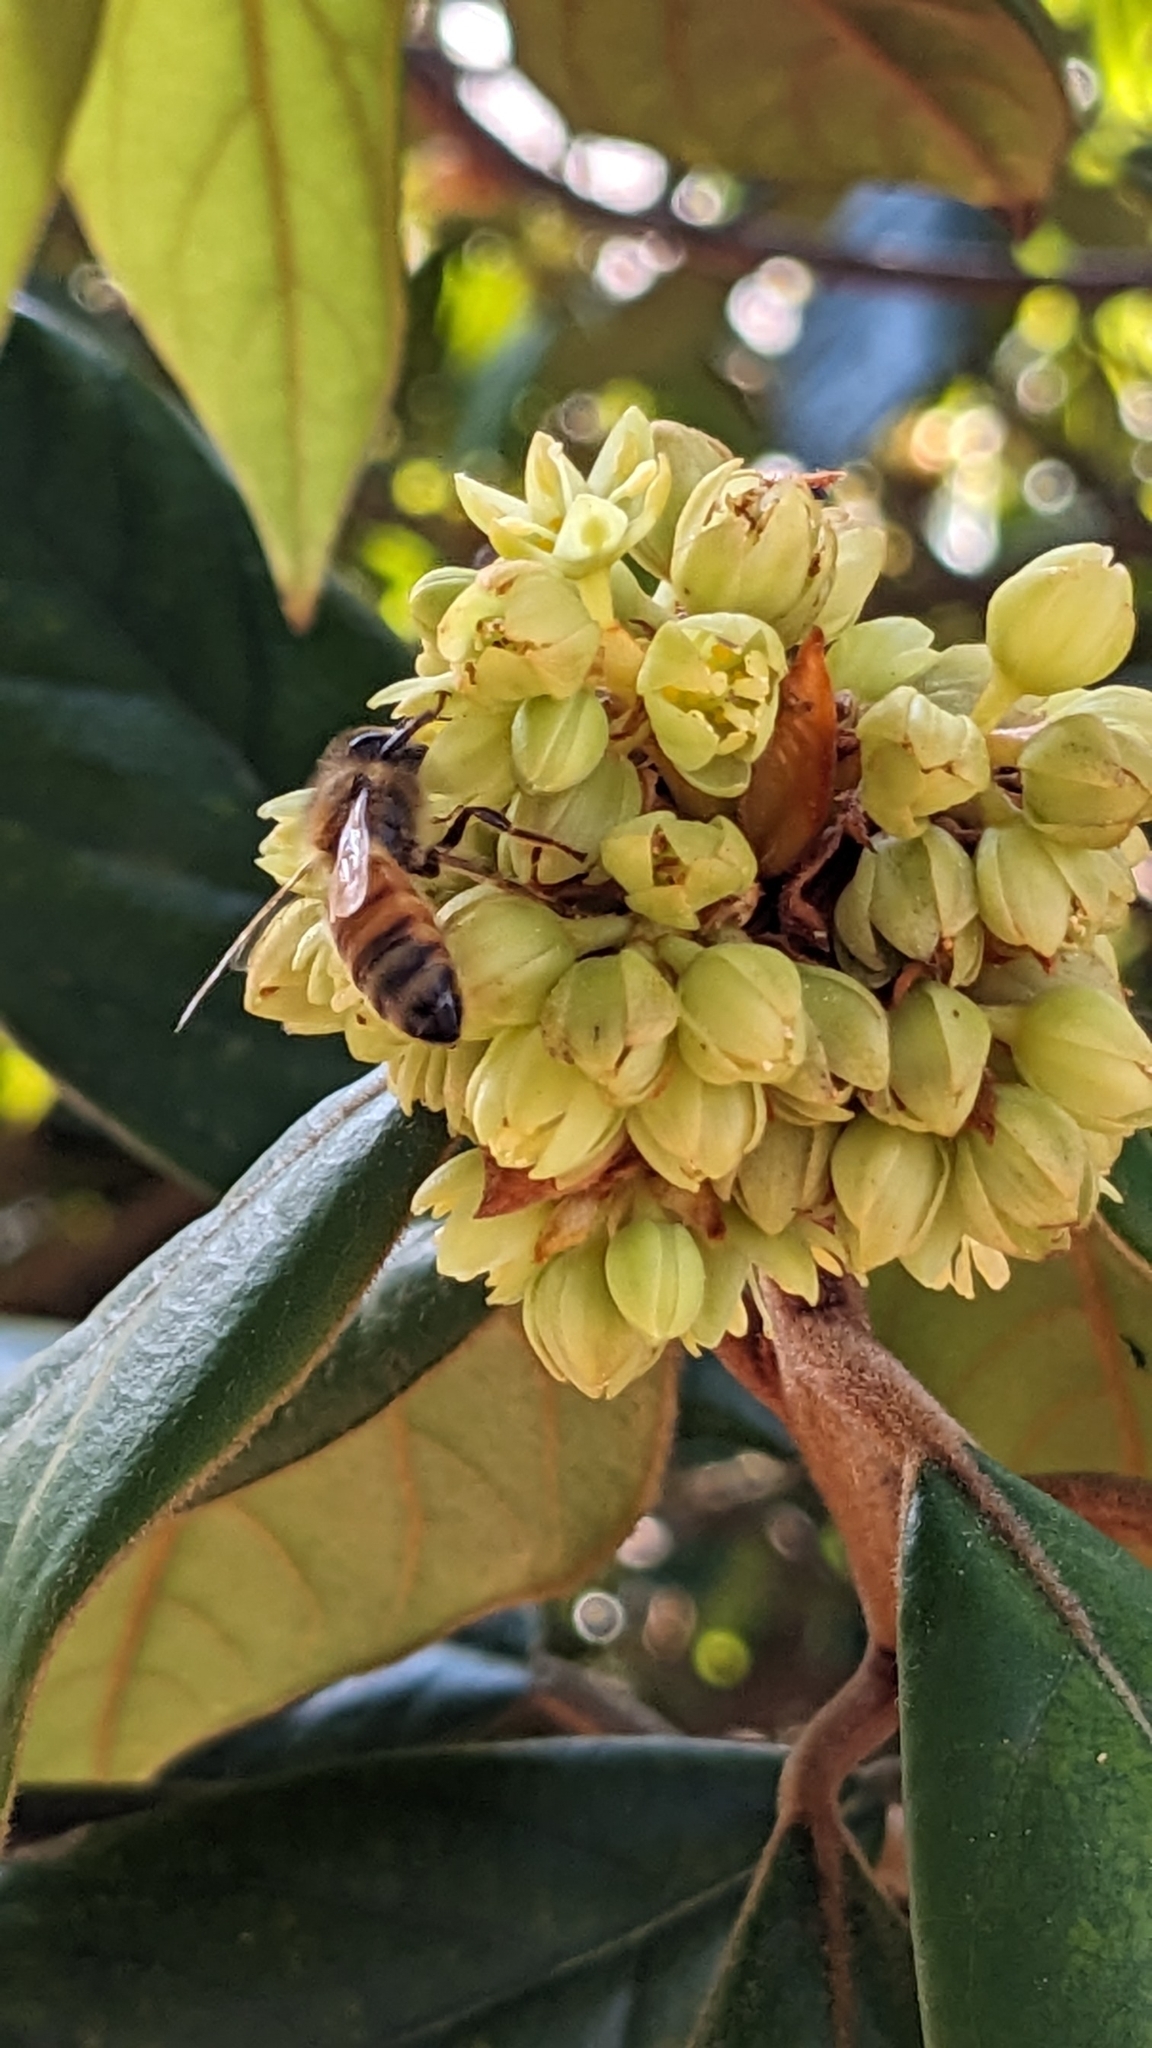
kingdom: Animalia
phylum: Arthropoda
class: Insecta
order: Hymenoptera
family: Apidae
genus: Apis
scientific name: Apis mellifera
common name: Honey bee
